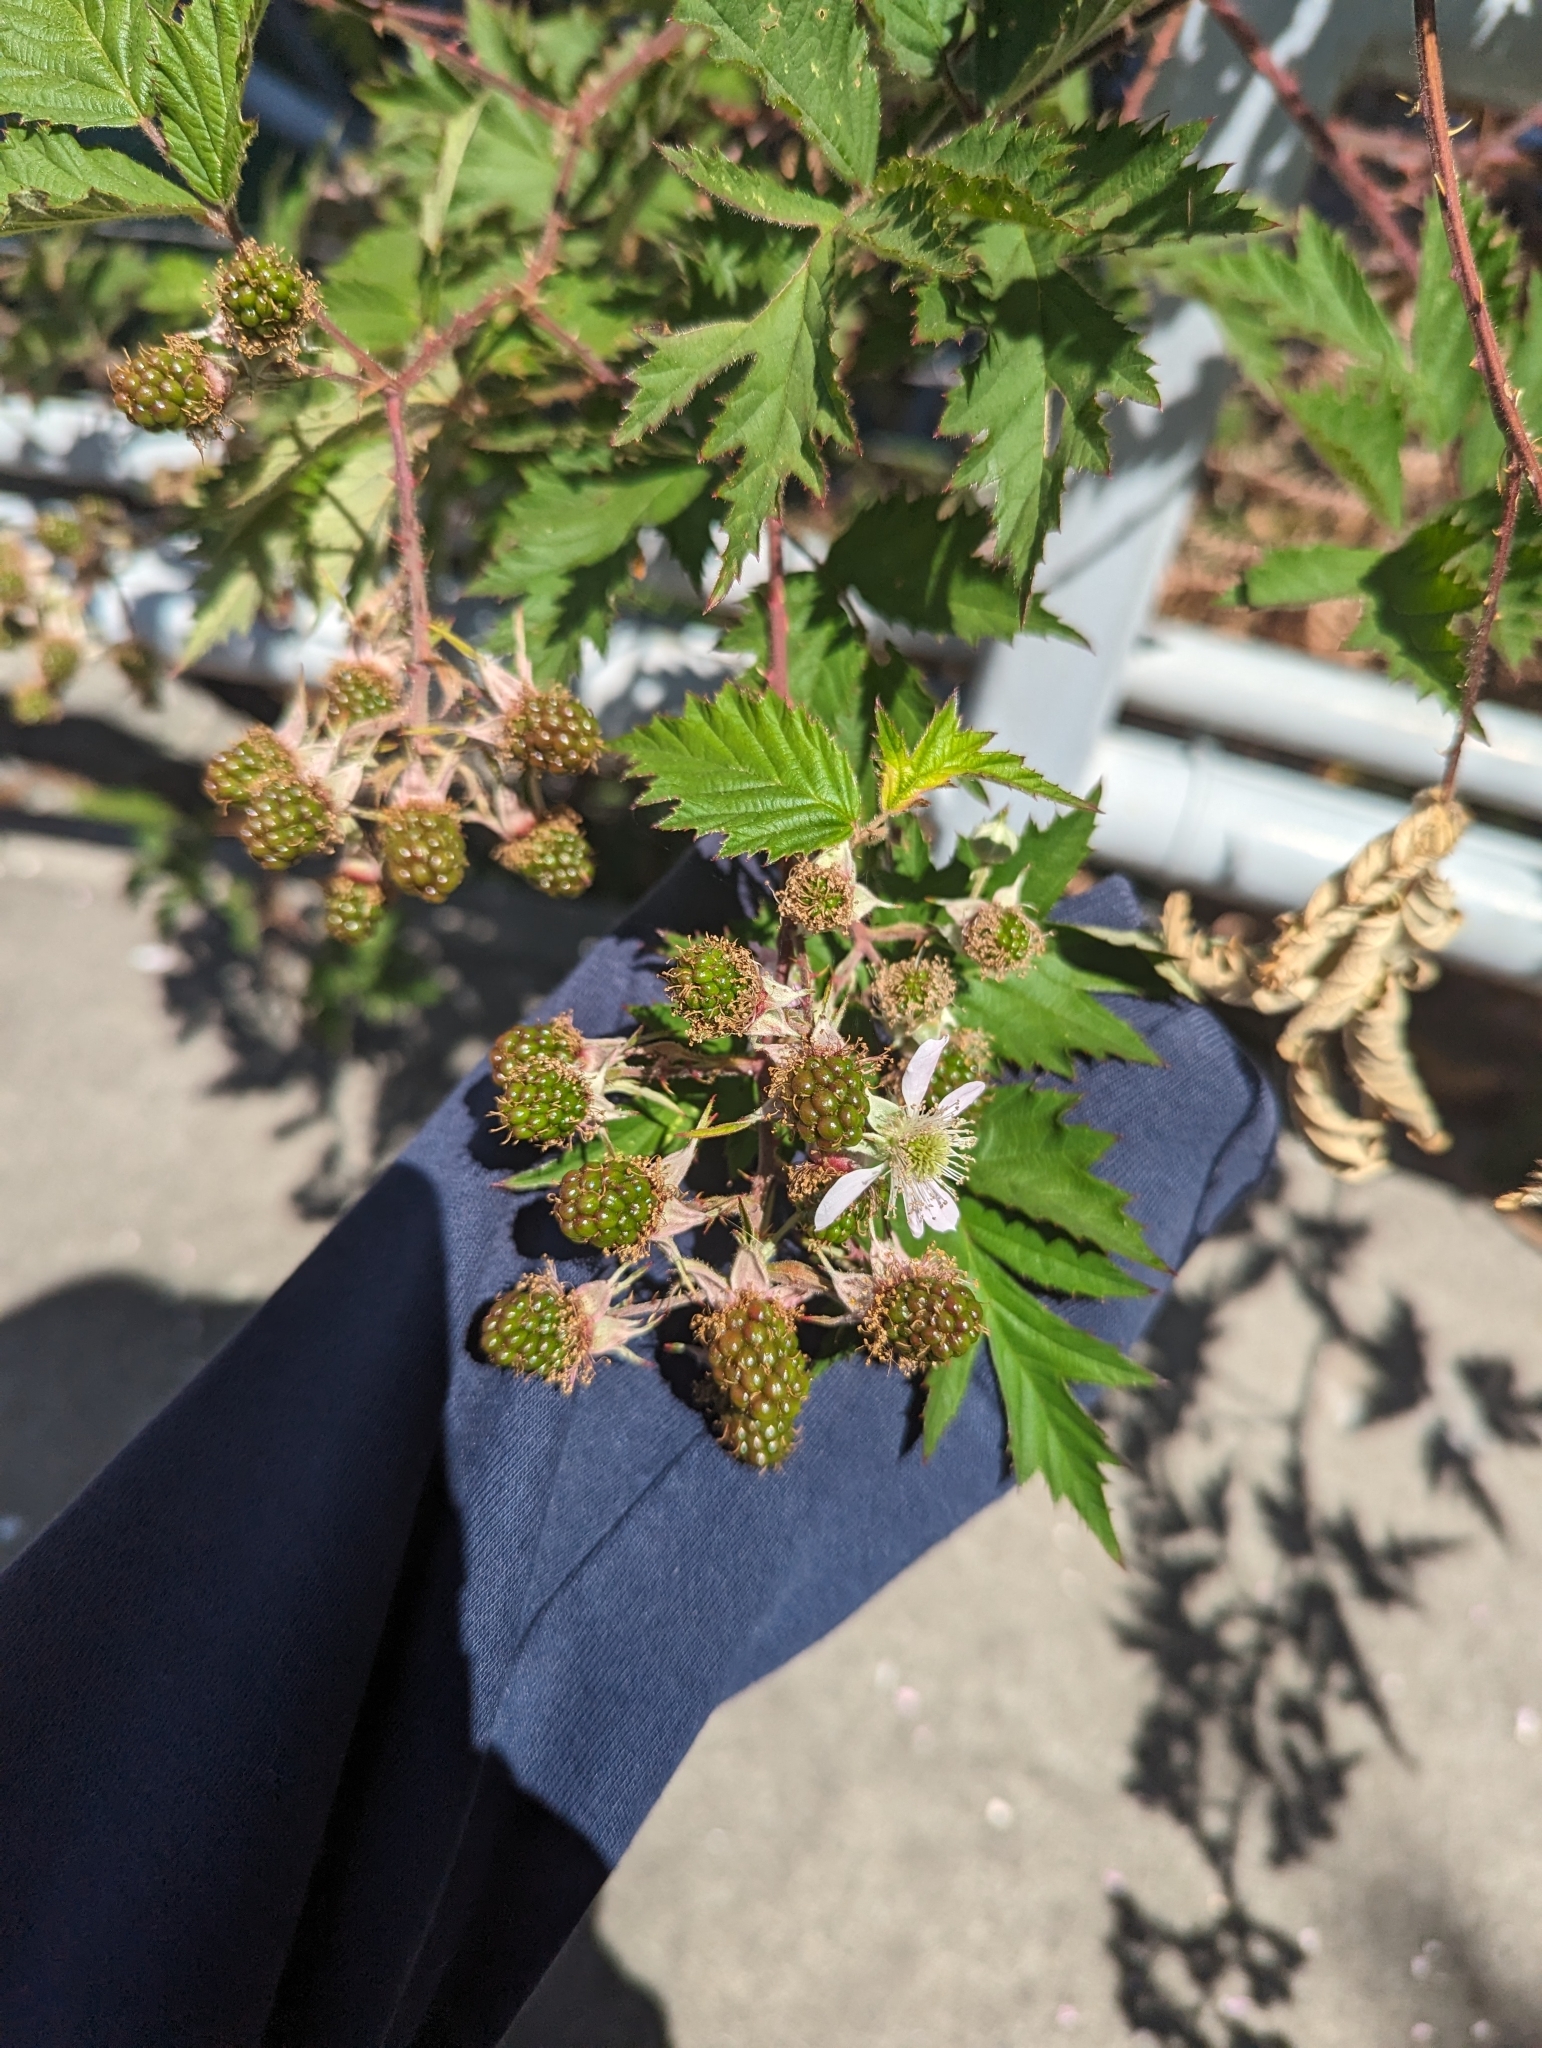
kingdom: Plantae
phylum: Tracheophyta
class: Magnoliopsida
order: Rosales
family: Rosaceae
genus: Rubus
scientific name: Rubus laciniatus
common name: Evergreen blackberry
